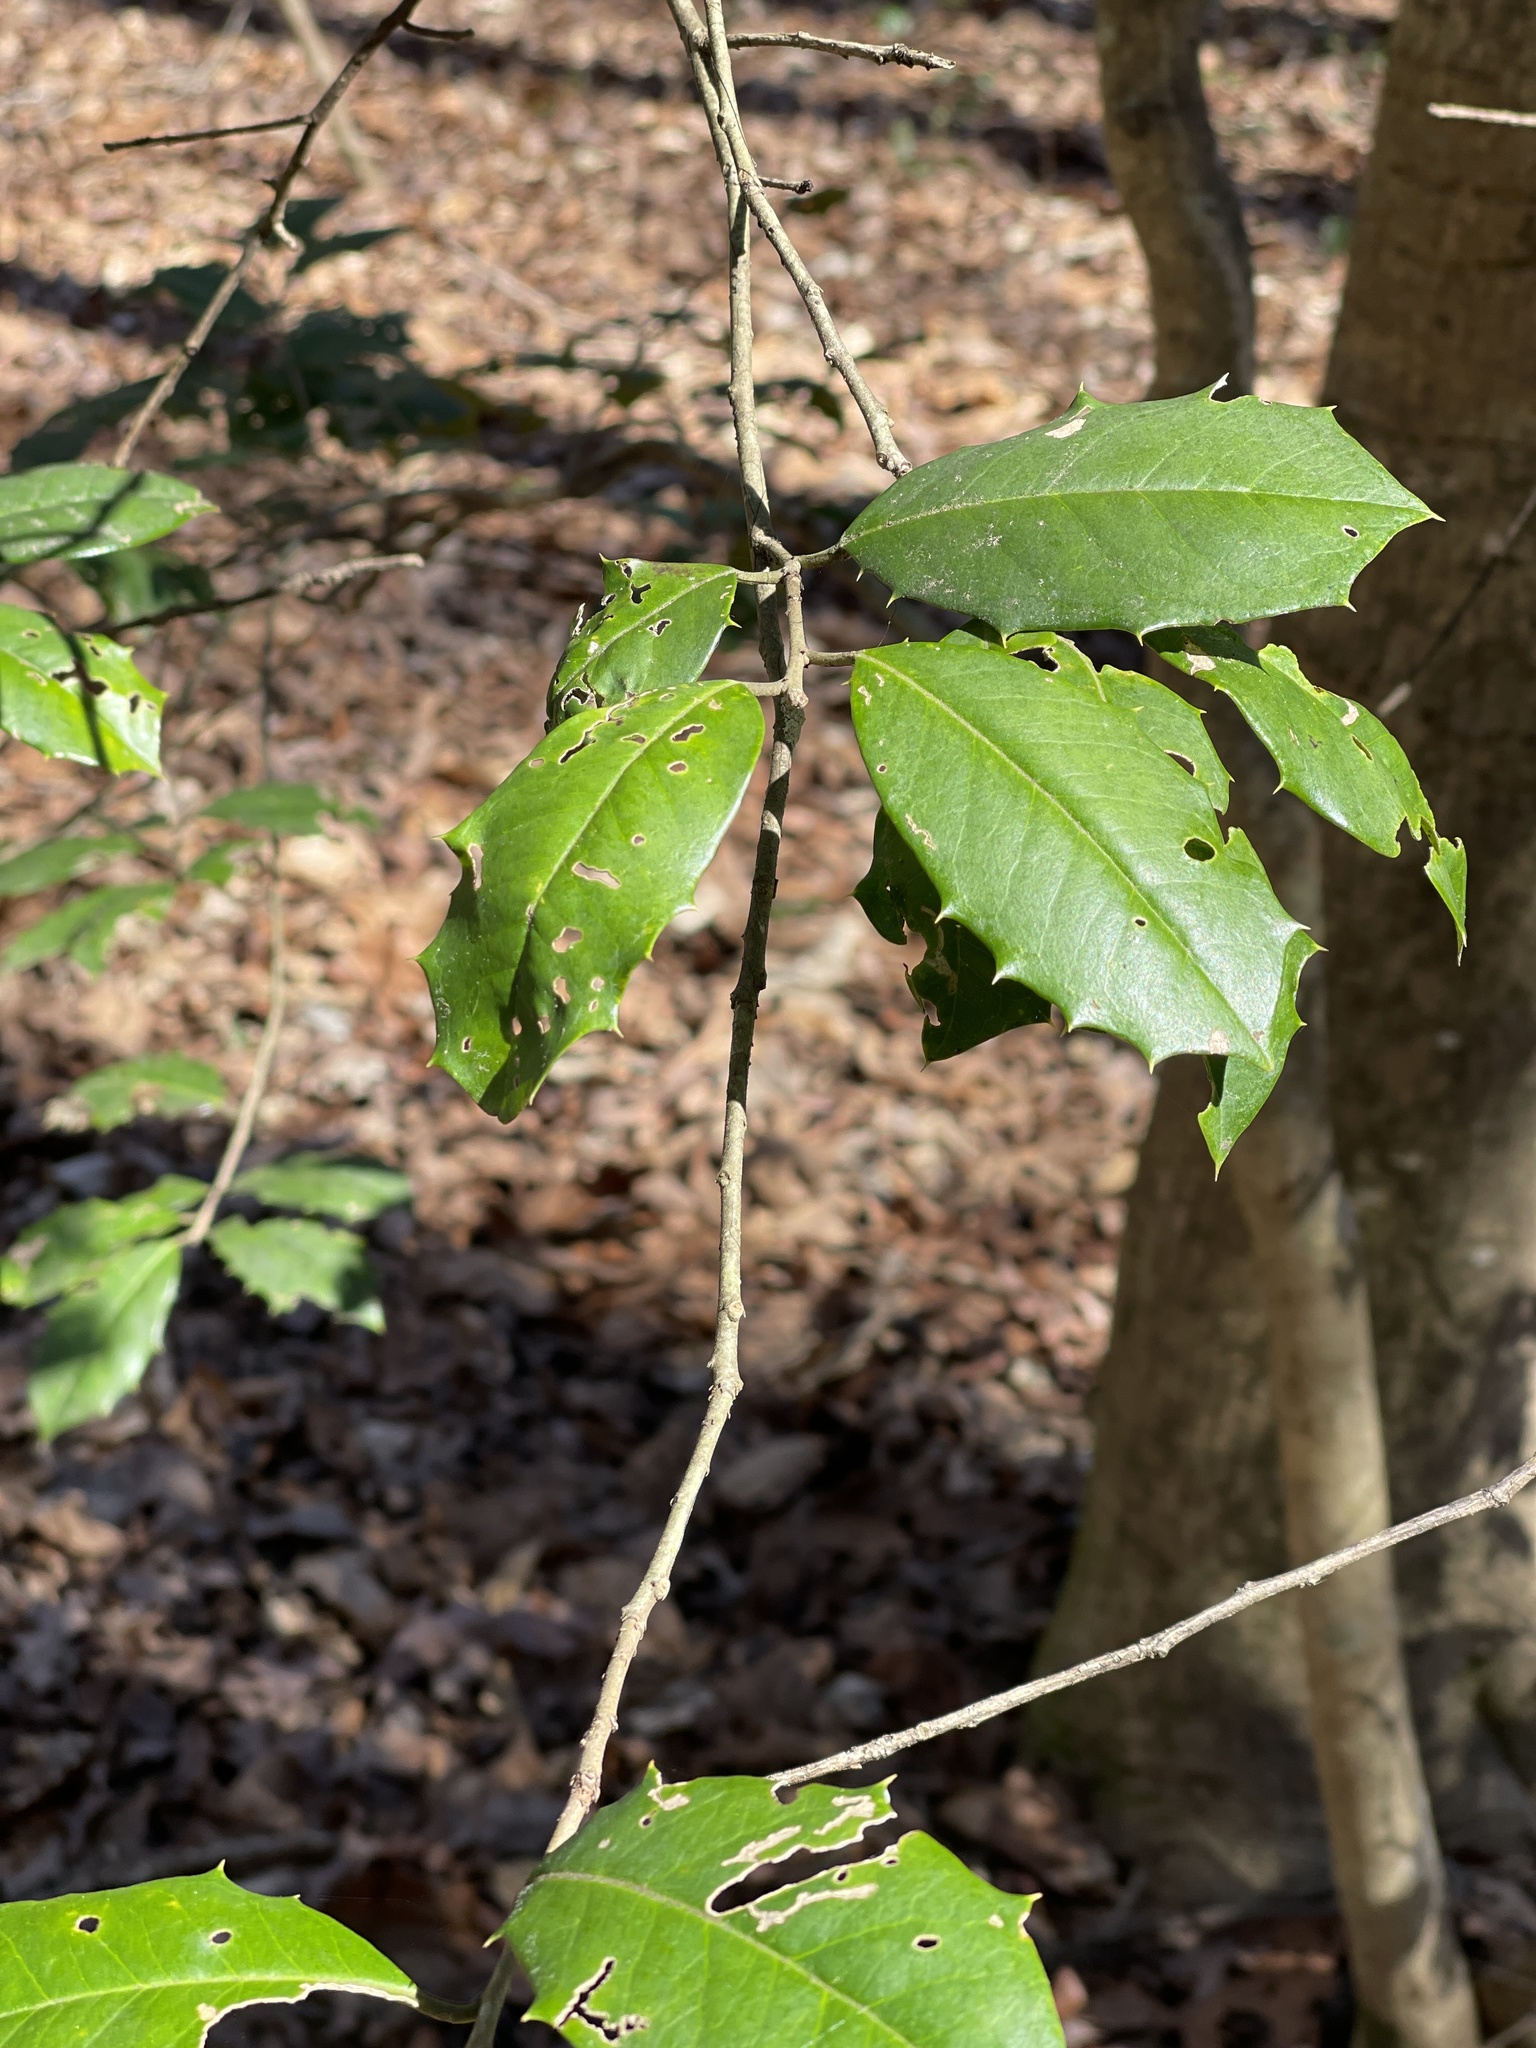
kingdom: Plantae
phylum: Tracheophyta
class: Magnoliopsida
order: Aquifoliales
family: Aquifoliaceae
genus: Ilex
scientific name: Ilex opaca
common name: American holly
